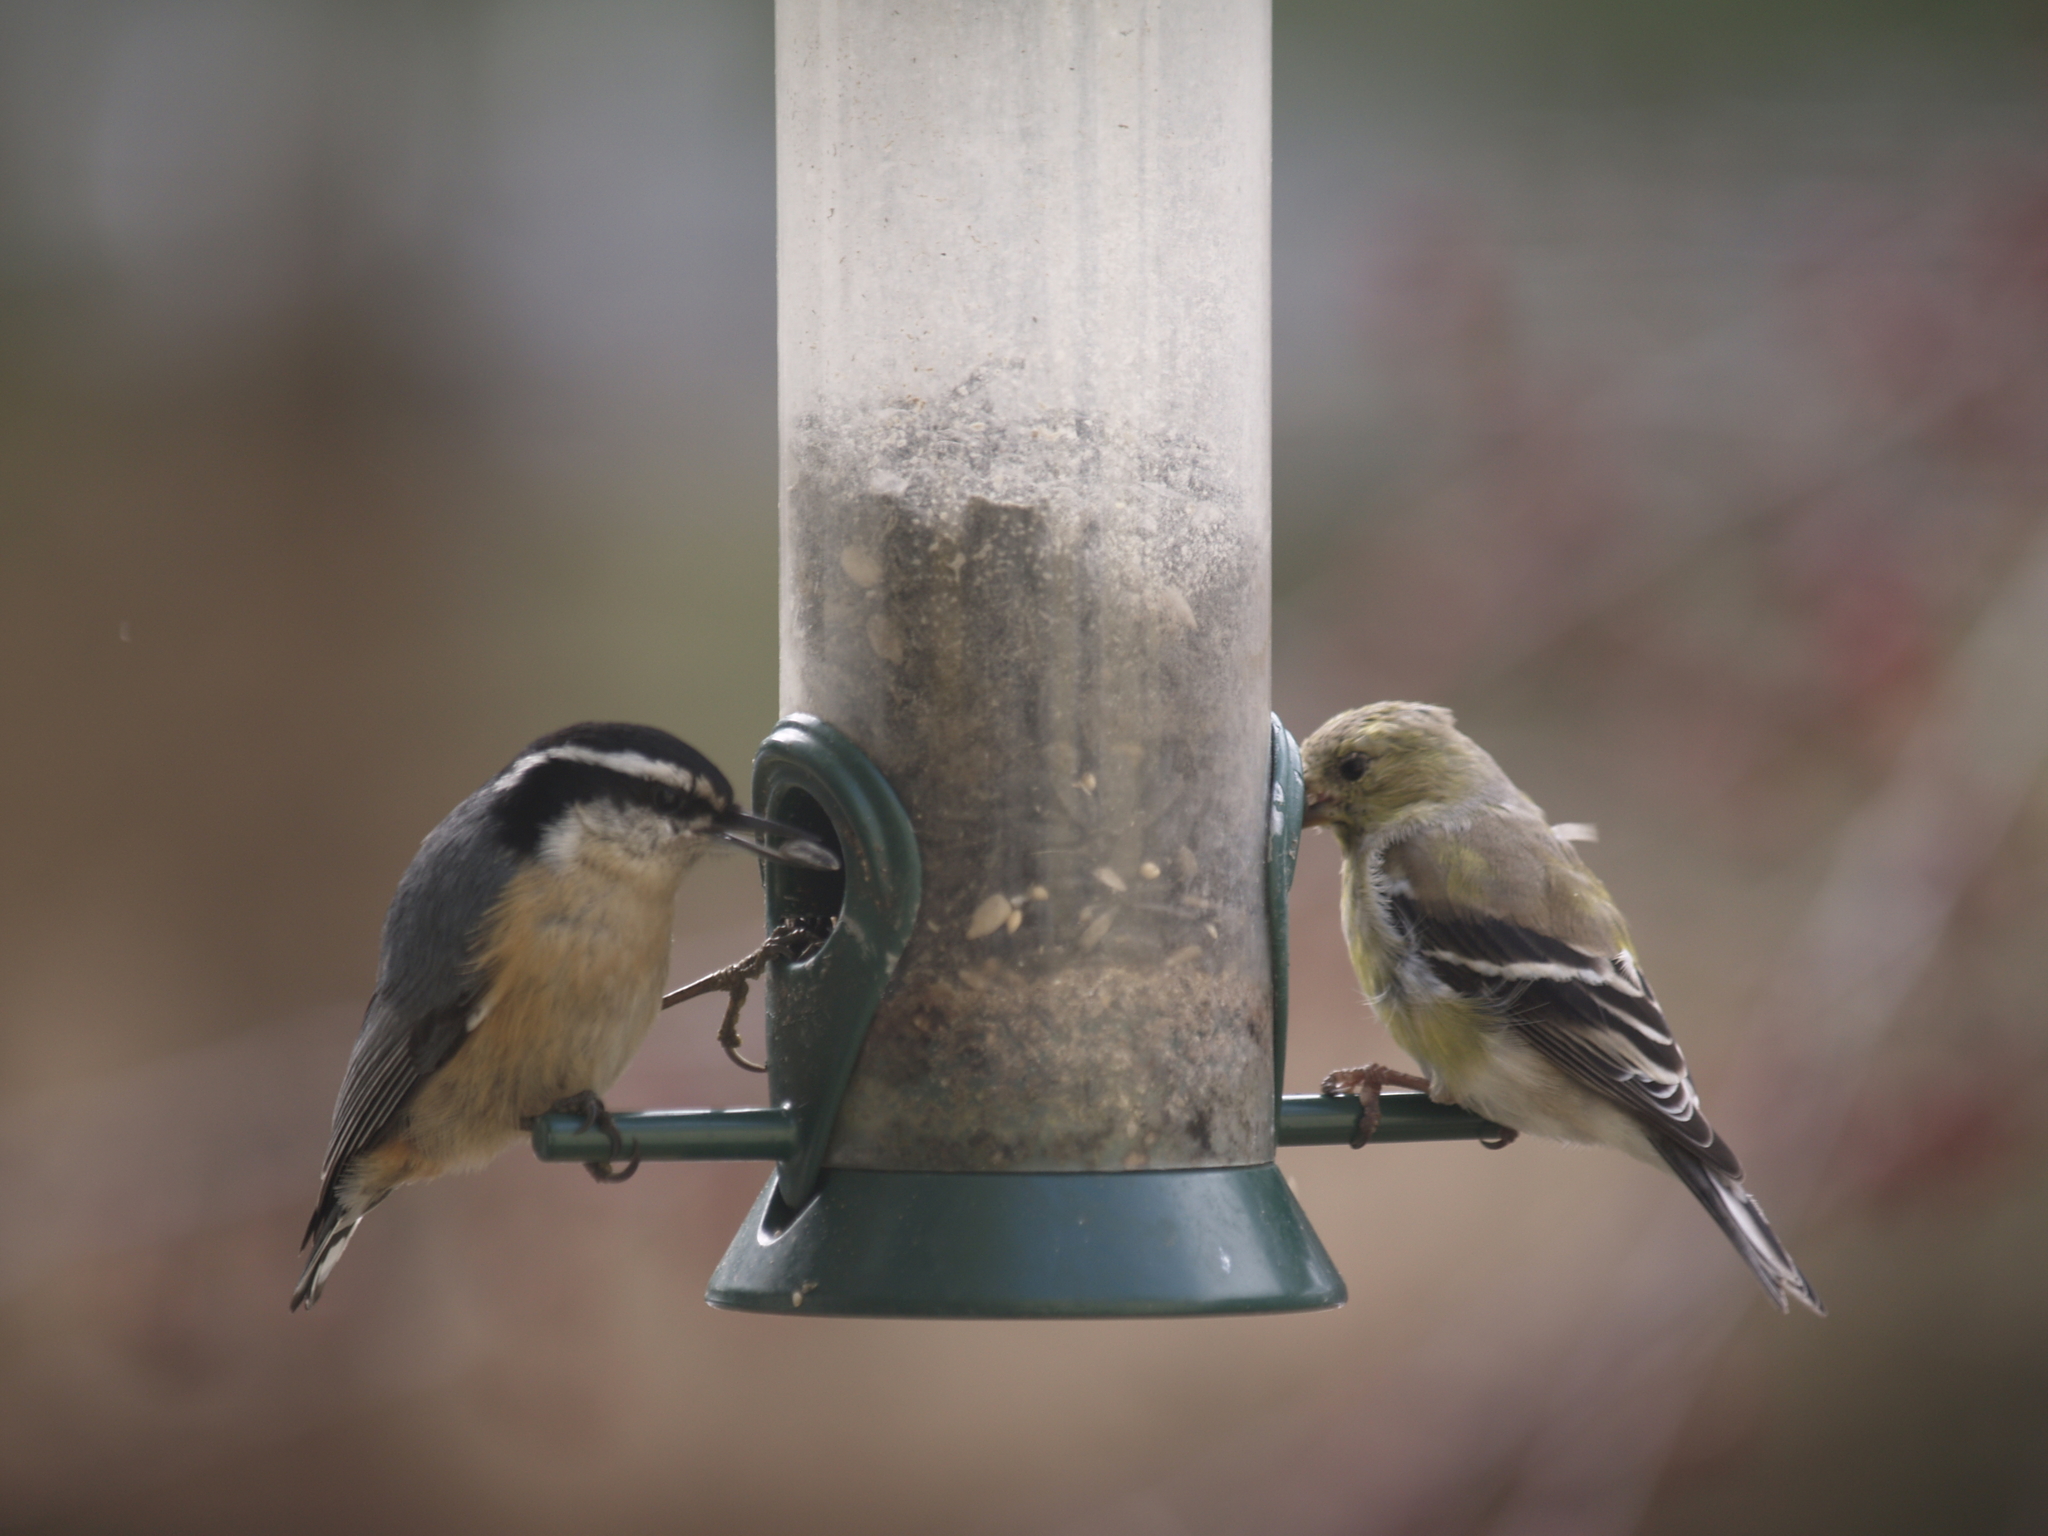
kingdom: Animalia
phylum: Chordata
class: Aves
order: Passeriformes
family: Sittidae
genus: Sitta
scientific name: Sitta canadensis
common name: Red-breasted nuthatch
